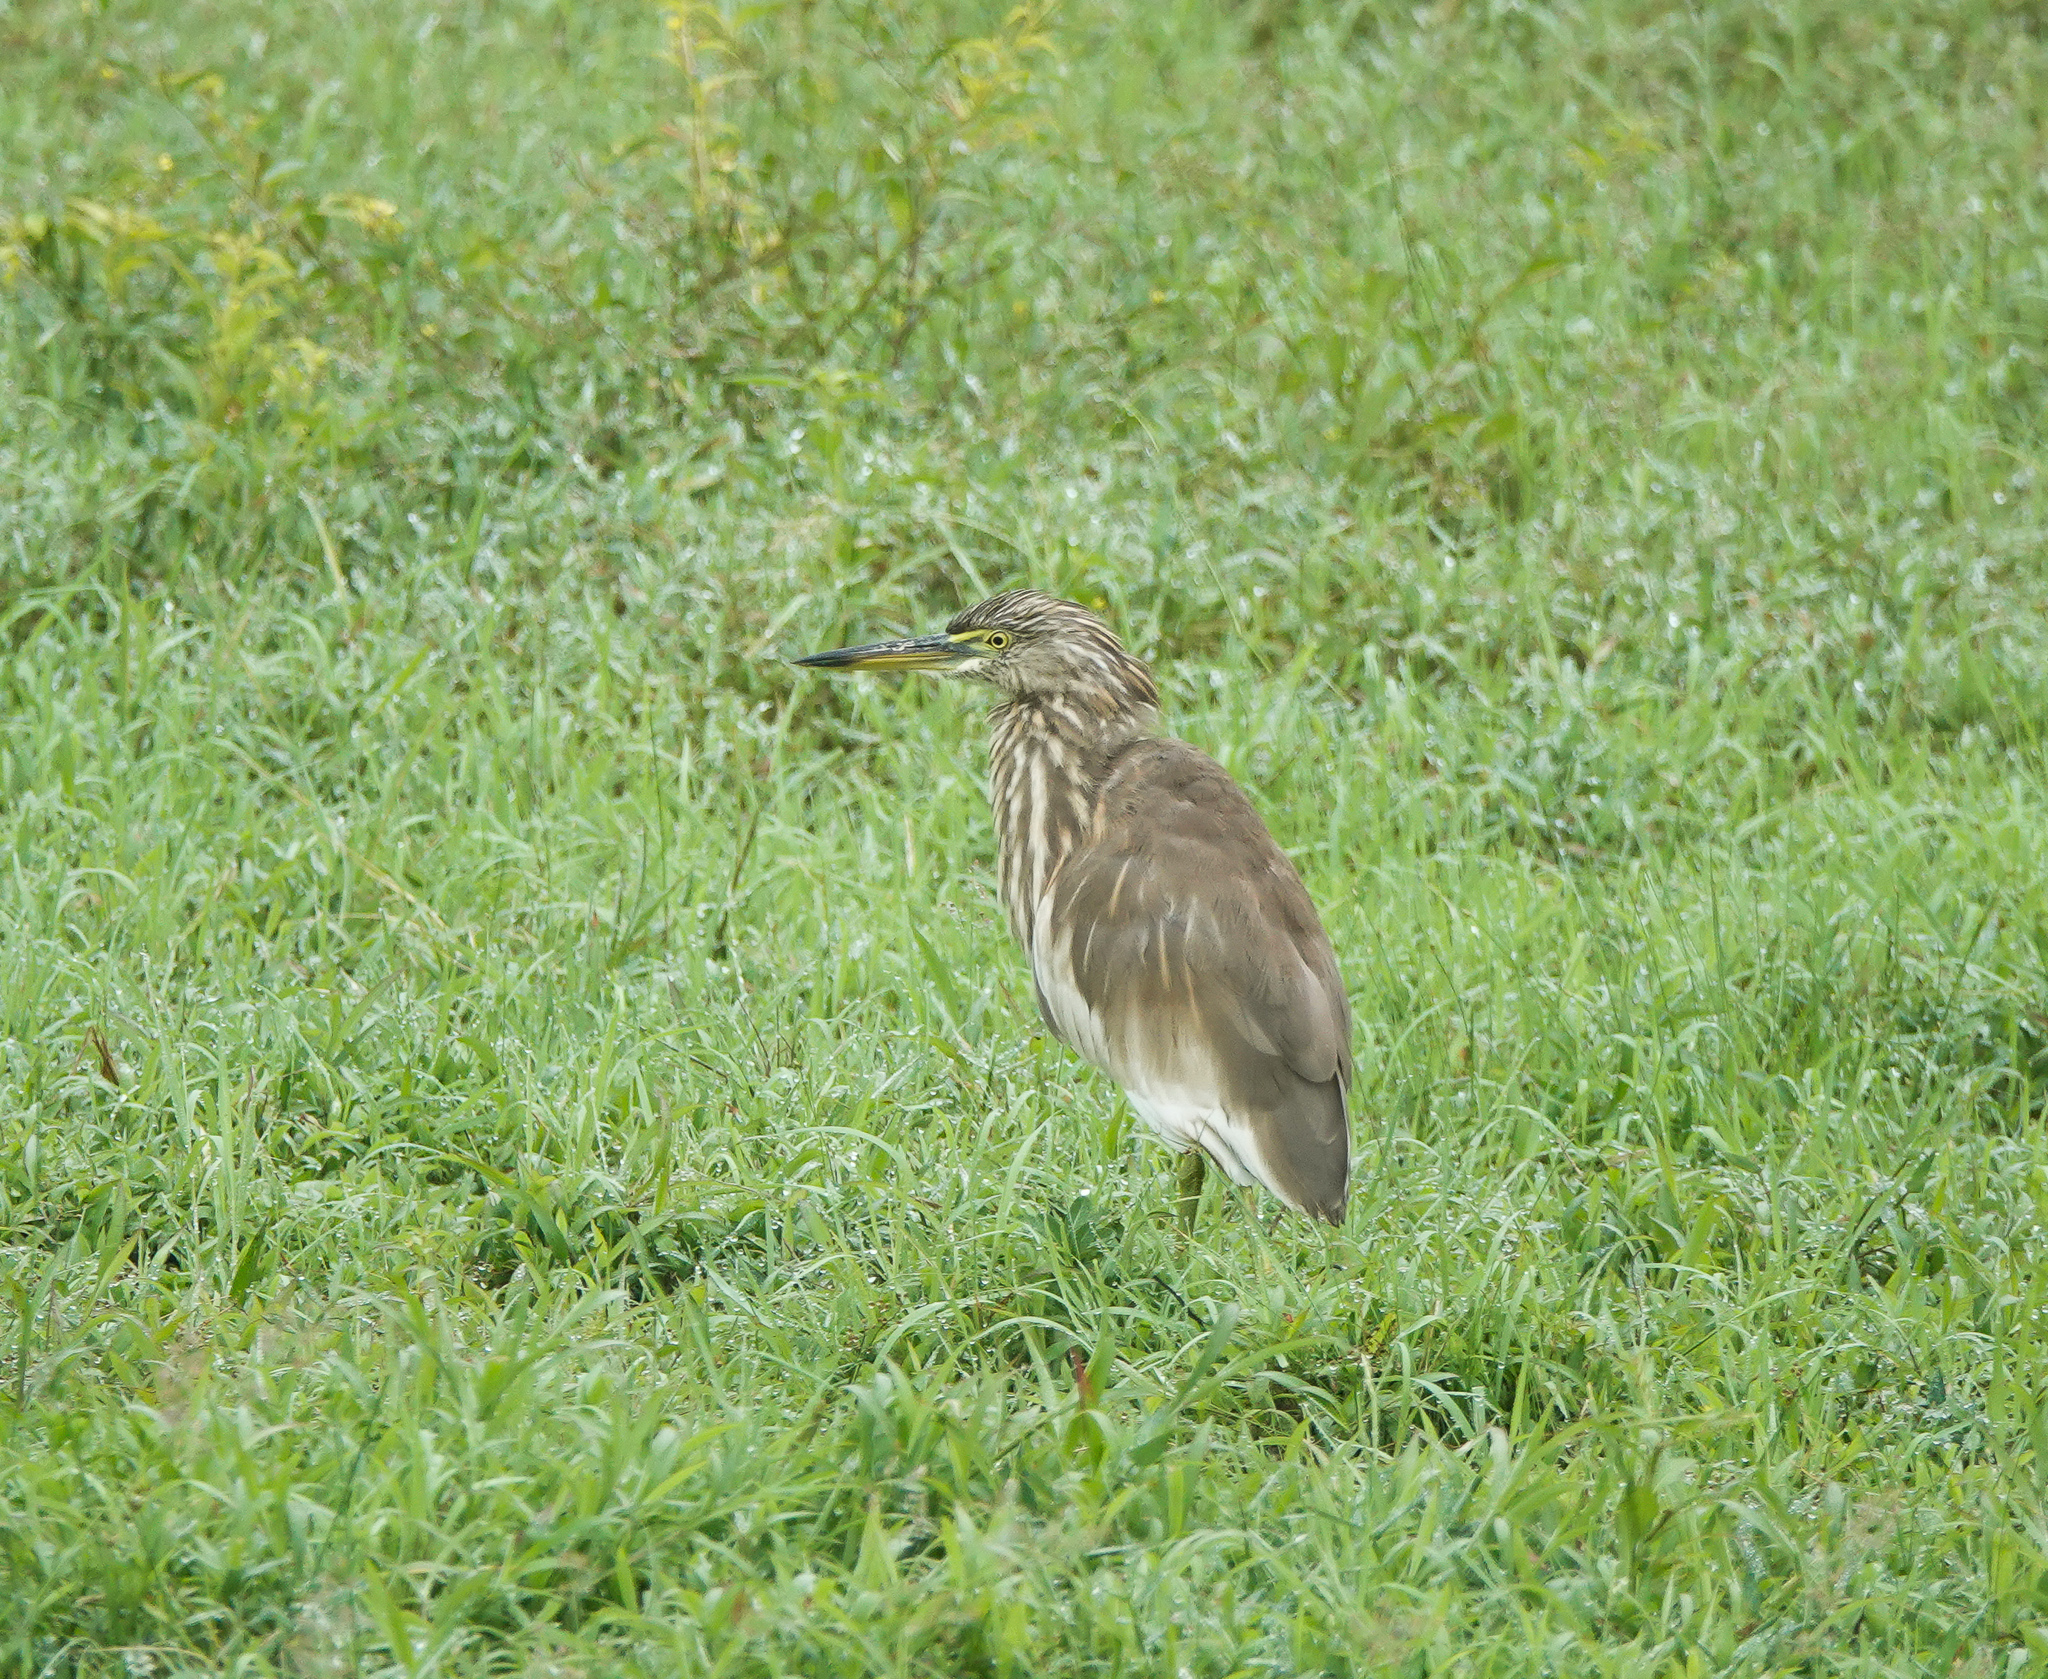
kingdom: Animalia
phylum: Chordata
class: Aves
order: Pelecaniformes
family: Ardeidae
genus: Ardeola
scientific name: Ardeola grayii
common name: Indian pond heron
